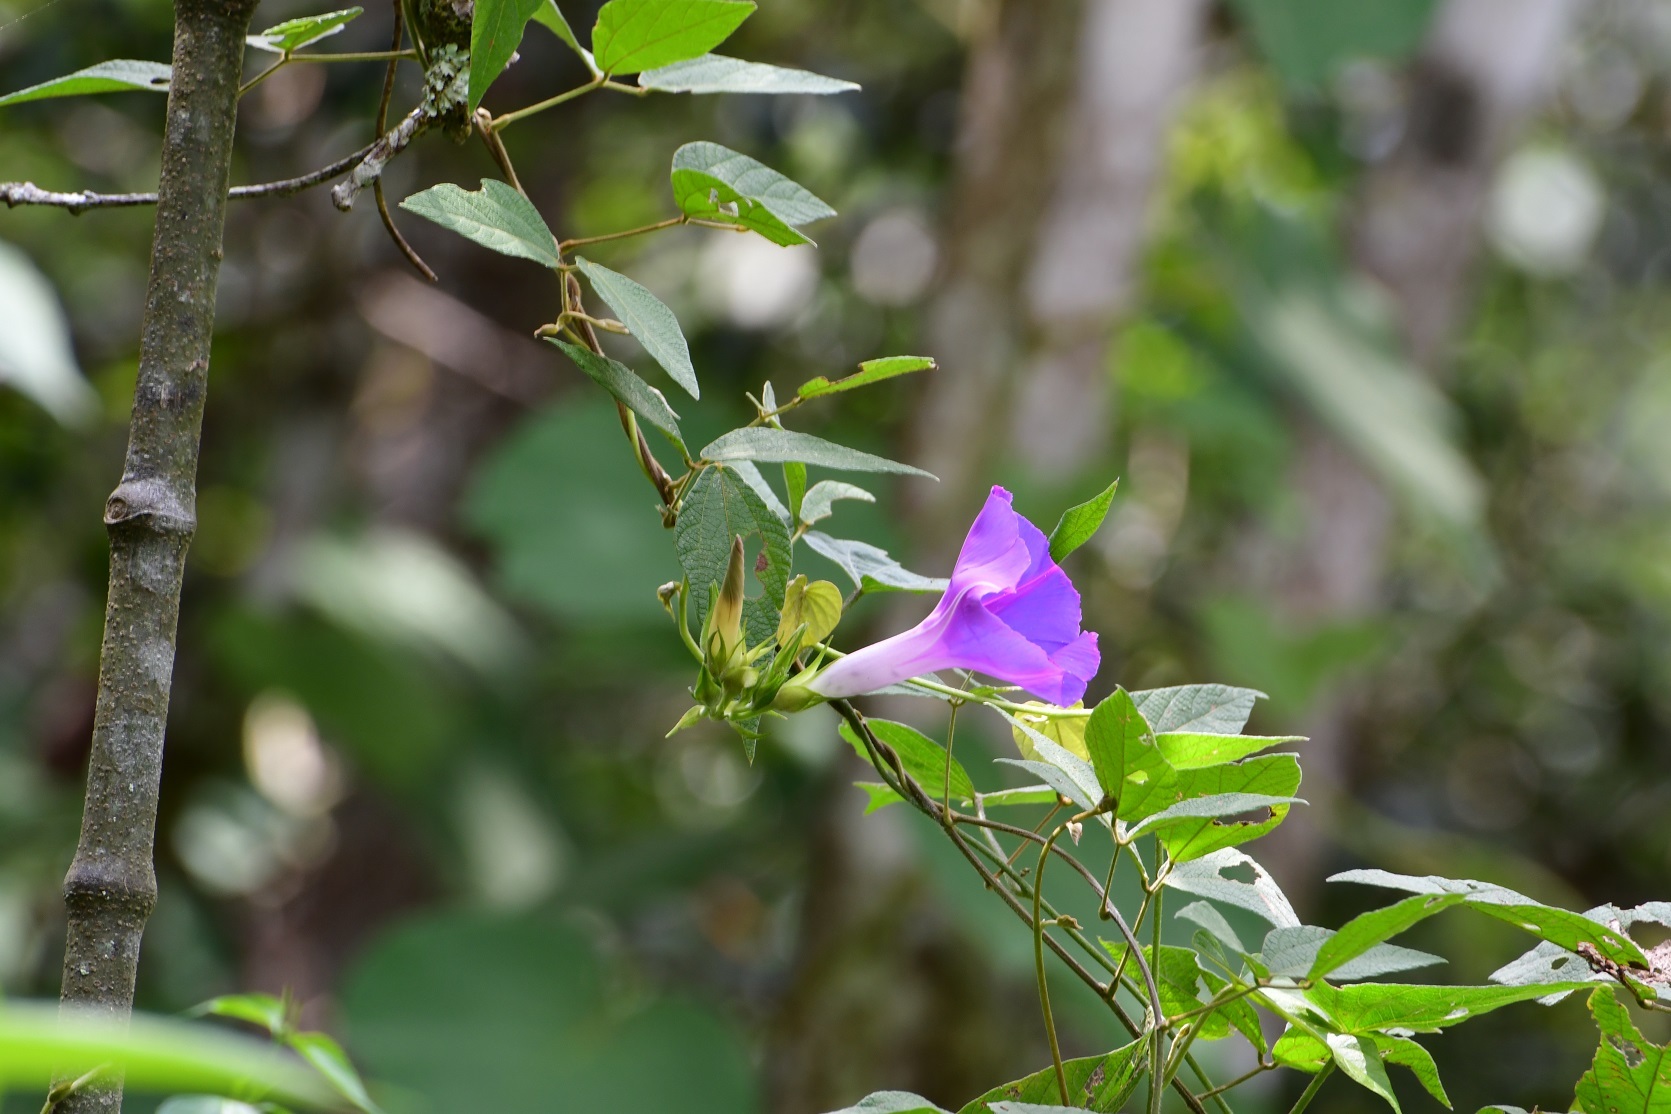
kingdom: Plantae
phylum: Tracheophyta
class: Magnoliopsida
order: Solanales
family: Convolvulaceae
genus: Ipomoea
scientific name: Ipomoea indica
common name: Blue dawnflower
